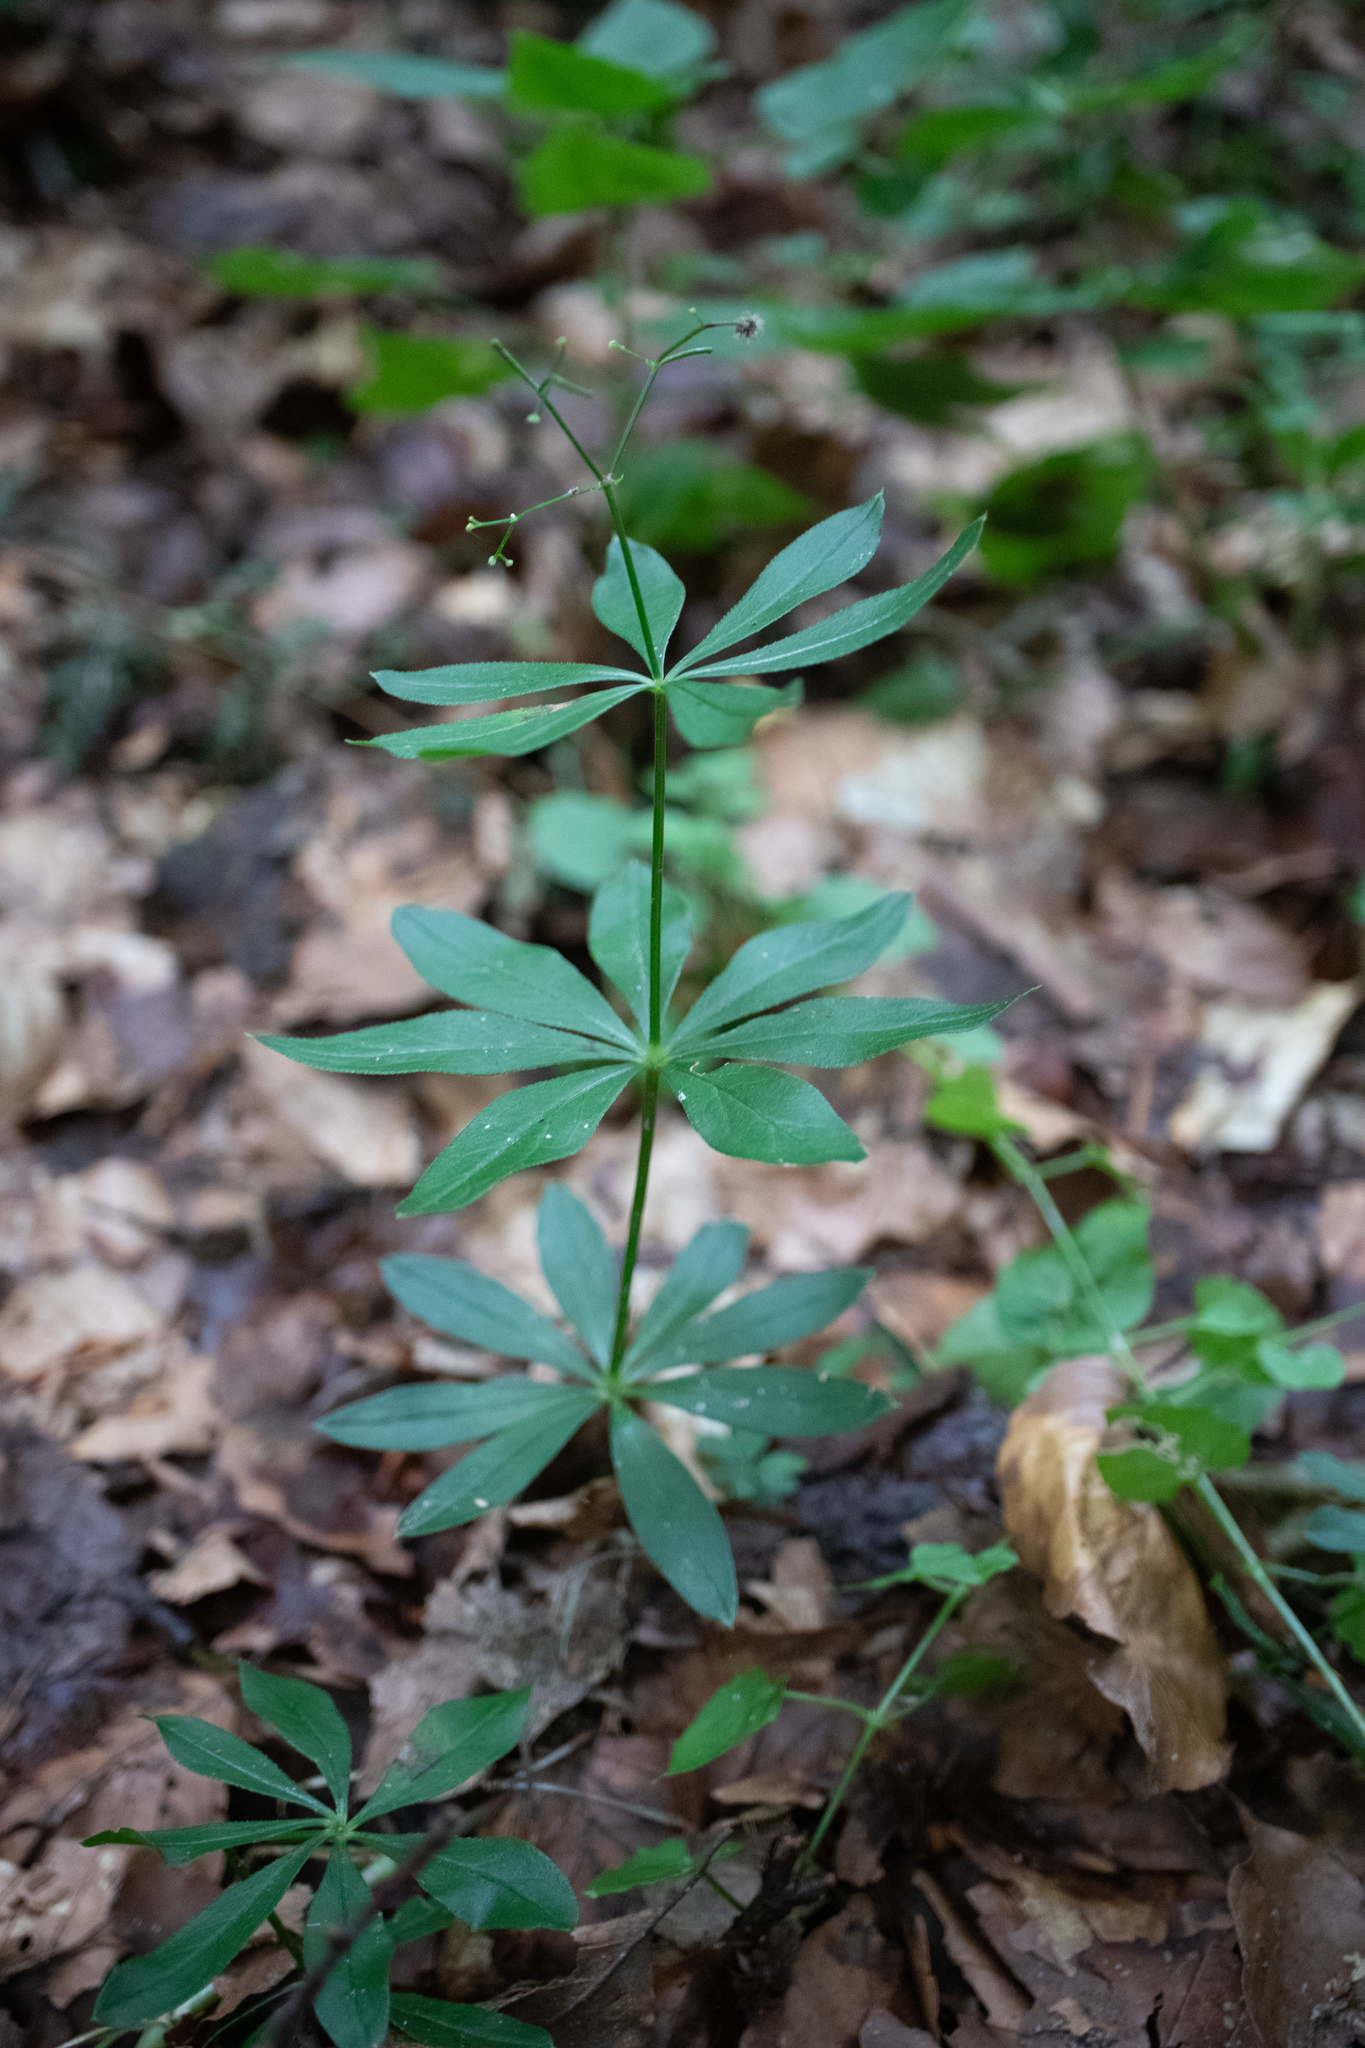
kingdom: Plantae
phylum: Tracheophyta
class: Magnoliopsida
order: Gentianales
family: Rubiaceae
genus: Galium
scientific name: Galium odoratum
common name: Sweet woodruff
